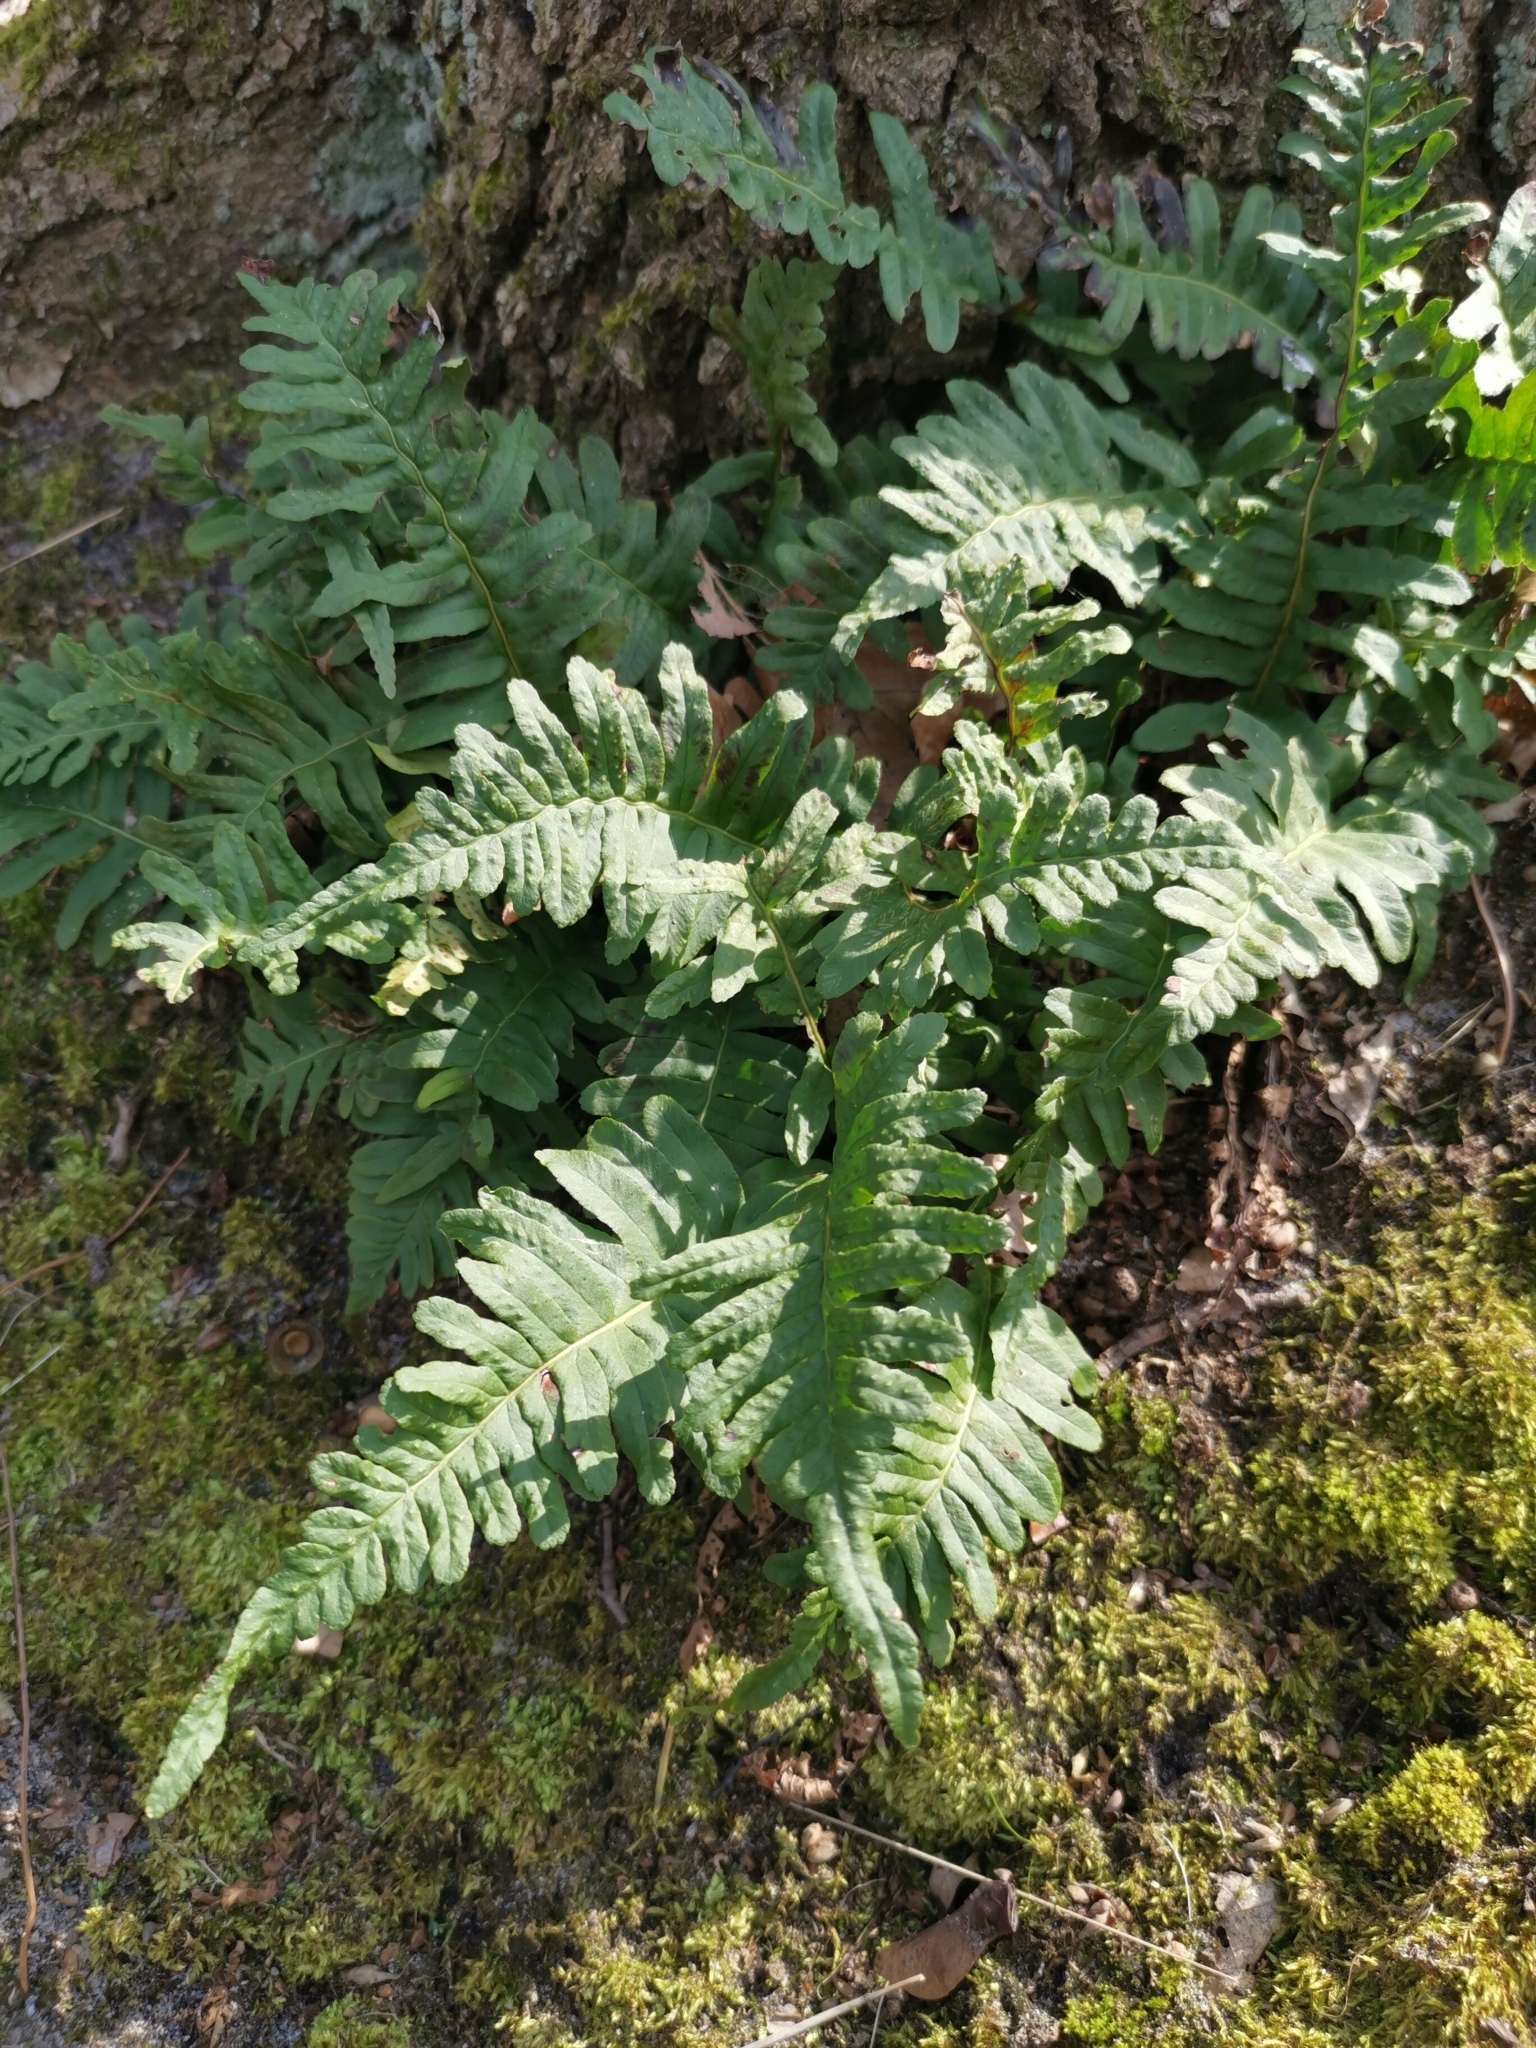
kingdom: Plantae
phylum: Tracheophyta
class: Polypodiopsida
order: Polypodiales
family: Polypodiaceae
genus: Polypodium
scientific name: Polypodium vulgare
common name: Common polypody
